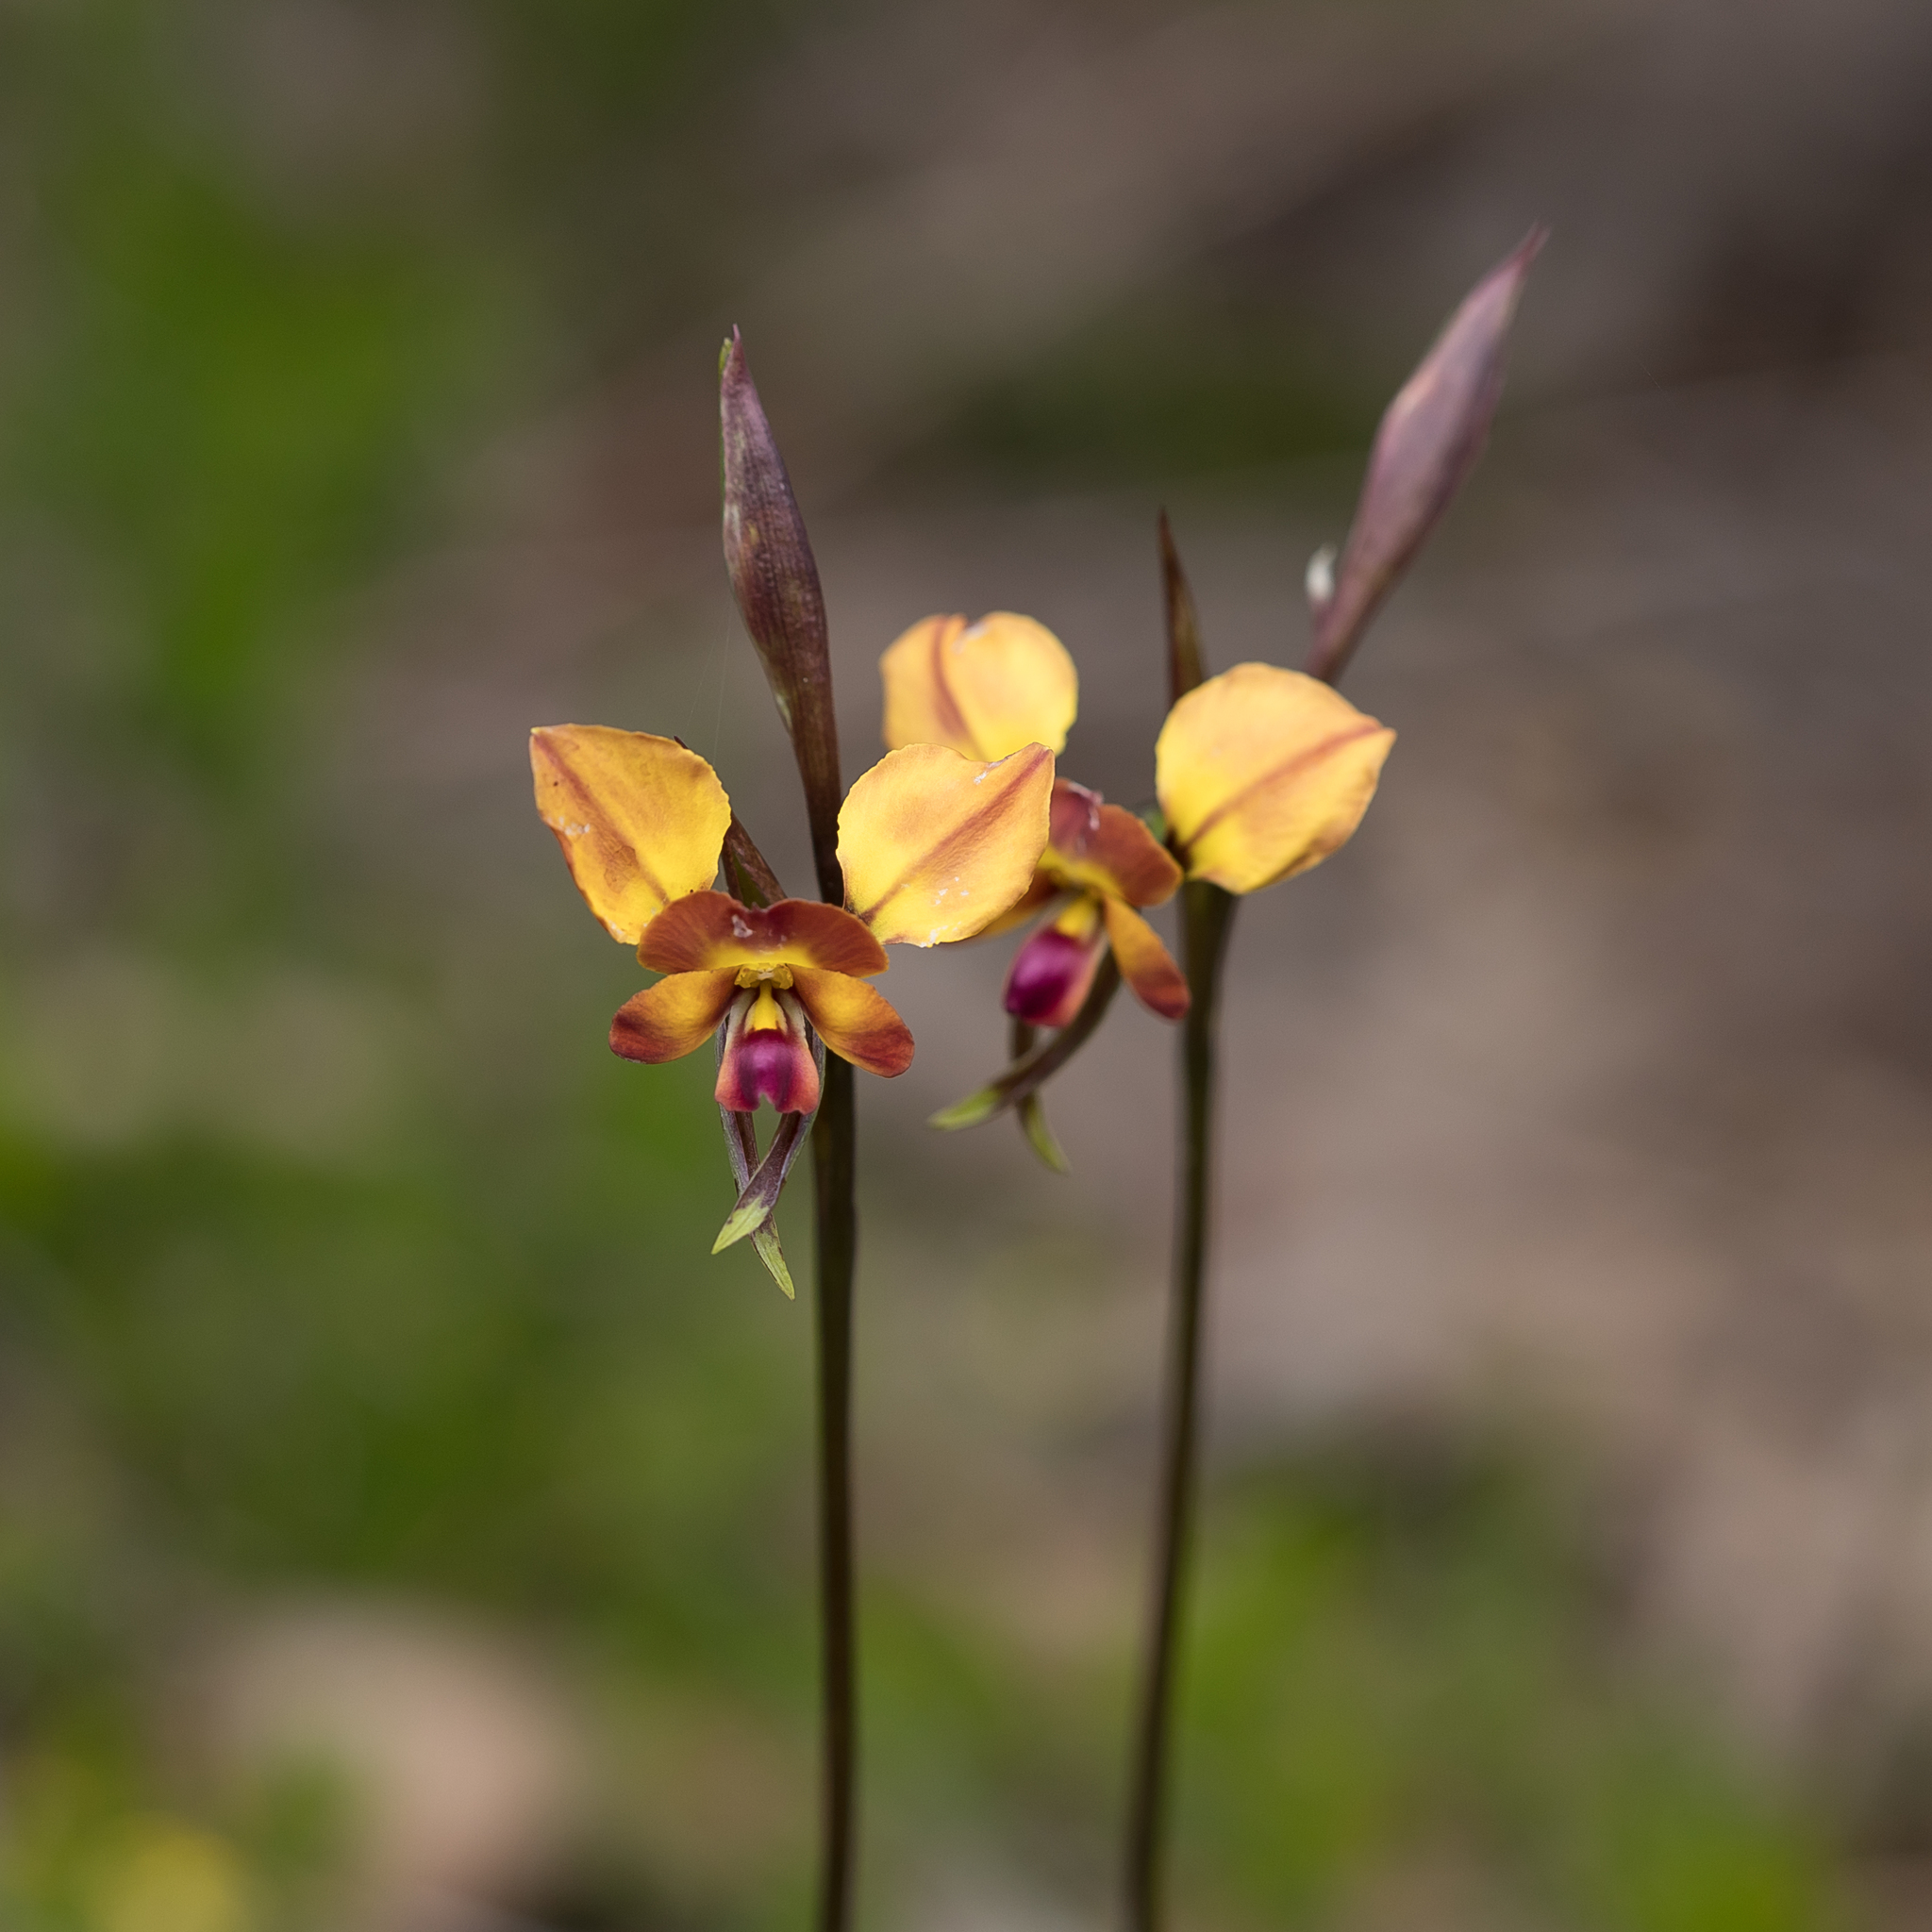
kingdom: Plantae
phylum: Tracheophyta
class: Liliopsida
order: Asparagales
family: Orchidaceae
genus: Diuris
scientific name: Diuris orientis
